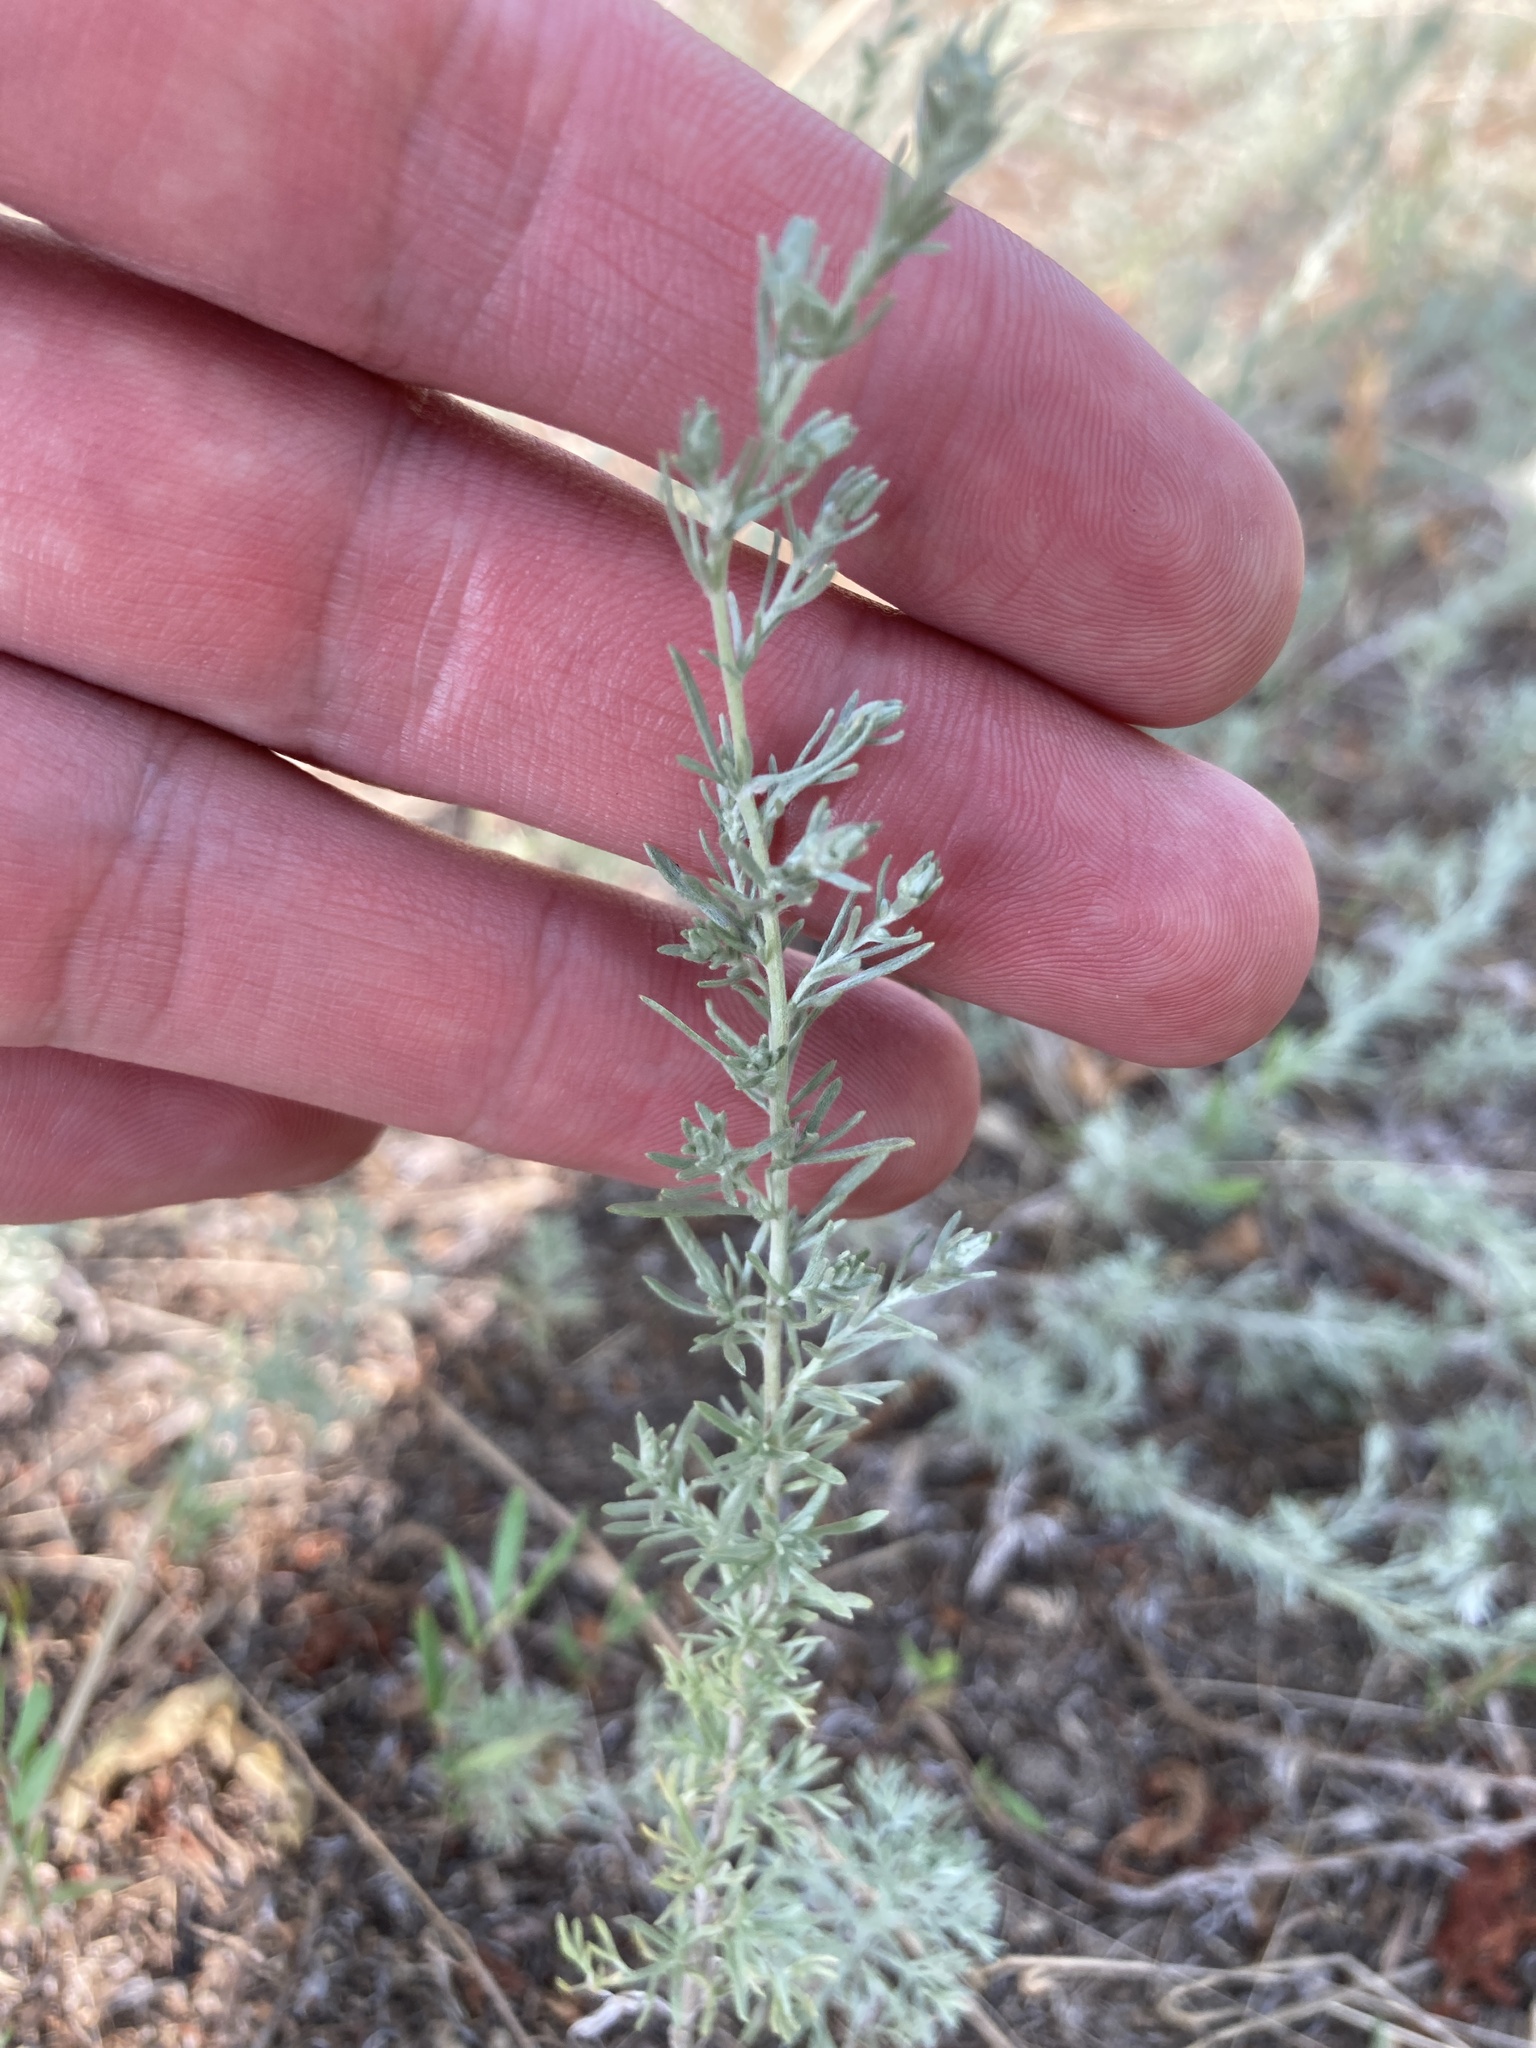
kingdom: Plantae
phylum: Tracheophyta
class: Magnoliopsida
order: Asterales
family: Asteraceae
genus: Artemisia
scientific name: Artemisia austriaca
